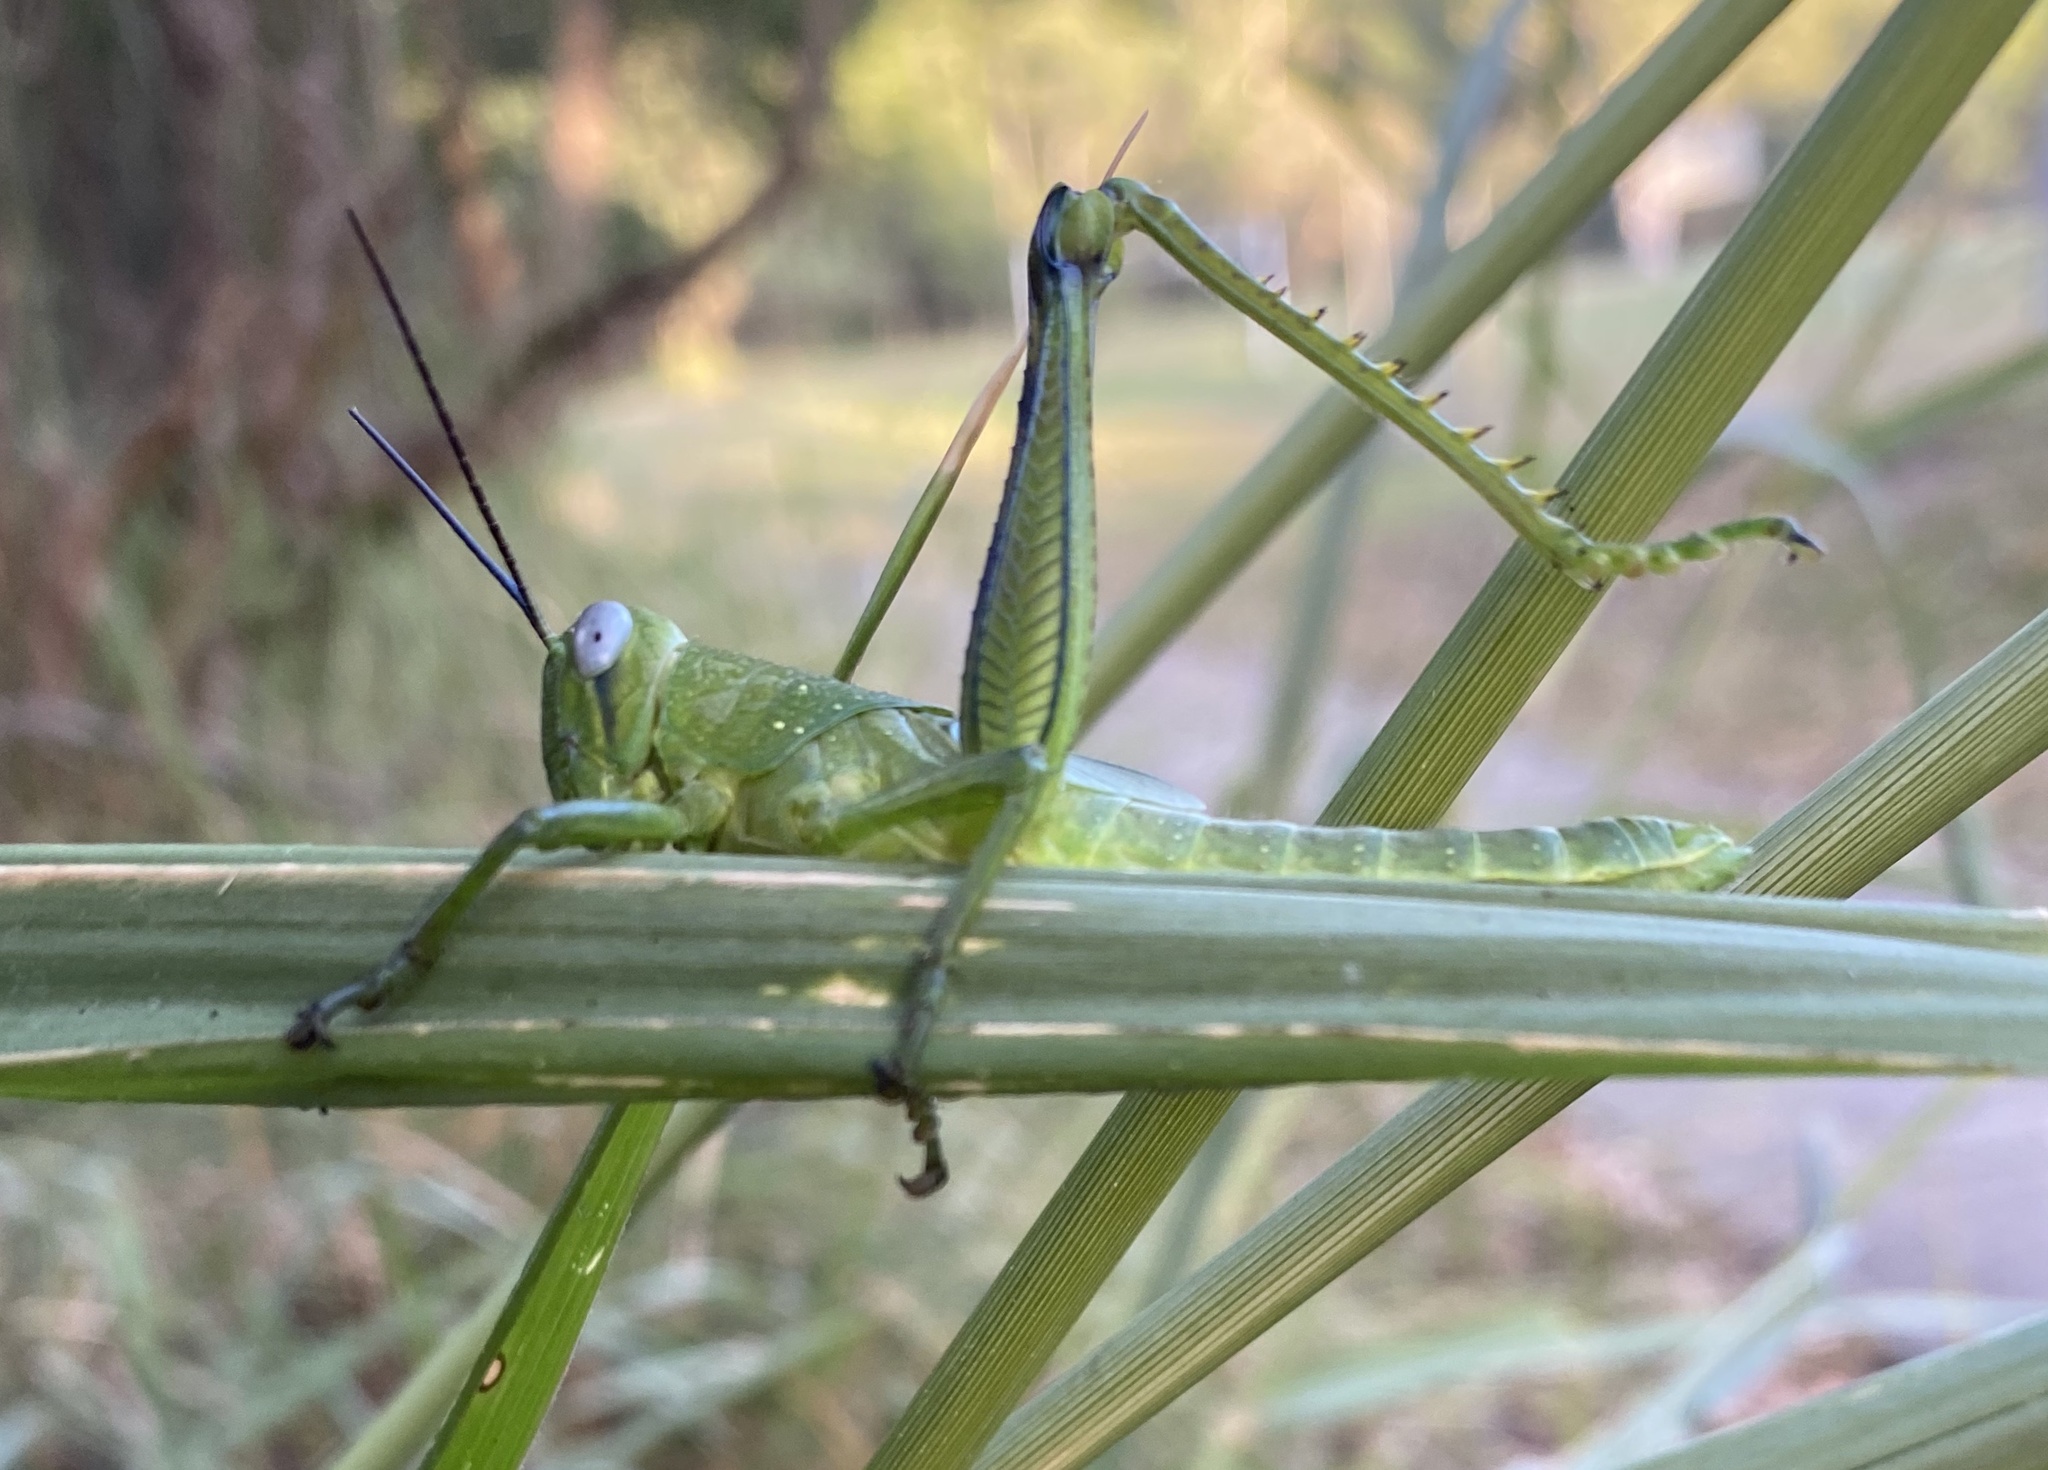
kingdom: Animalia
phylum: Arthropoda
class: Insecta
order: Orthoptera
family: Acrididae
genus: Valanga
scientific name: Valanga irregularis
